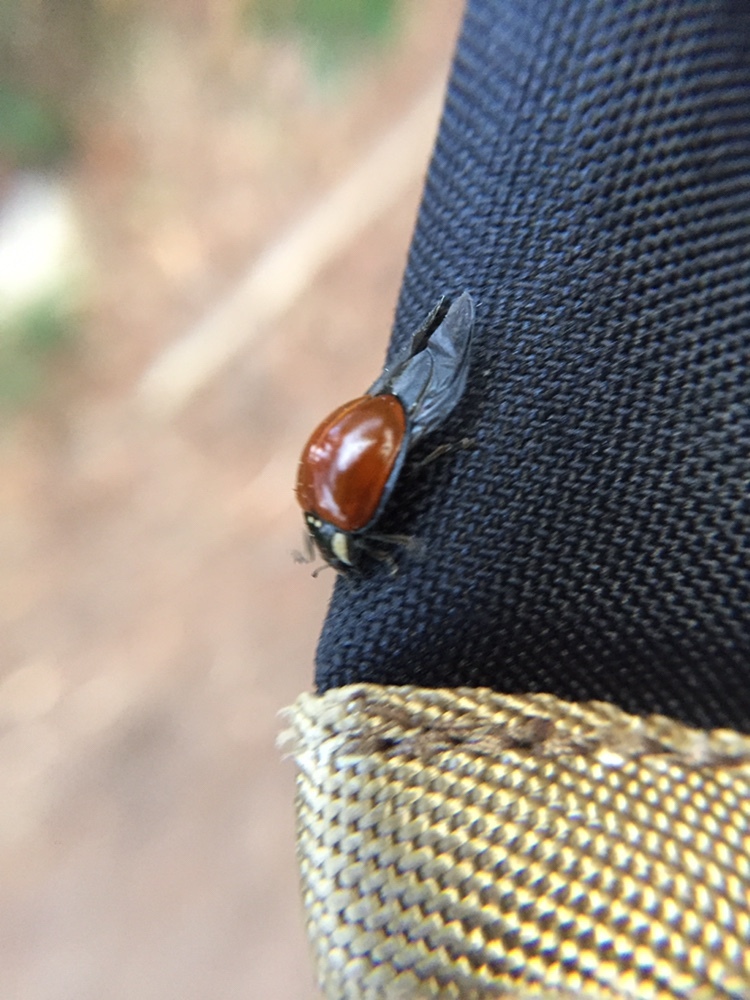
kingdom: Animalia
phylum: Arthropoda
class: Insecta
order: Coleoptera
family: Coccinellidae
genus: Anatis
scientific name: Anatis lecontei
